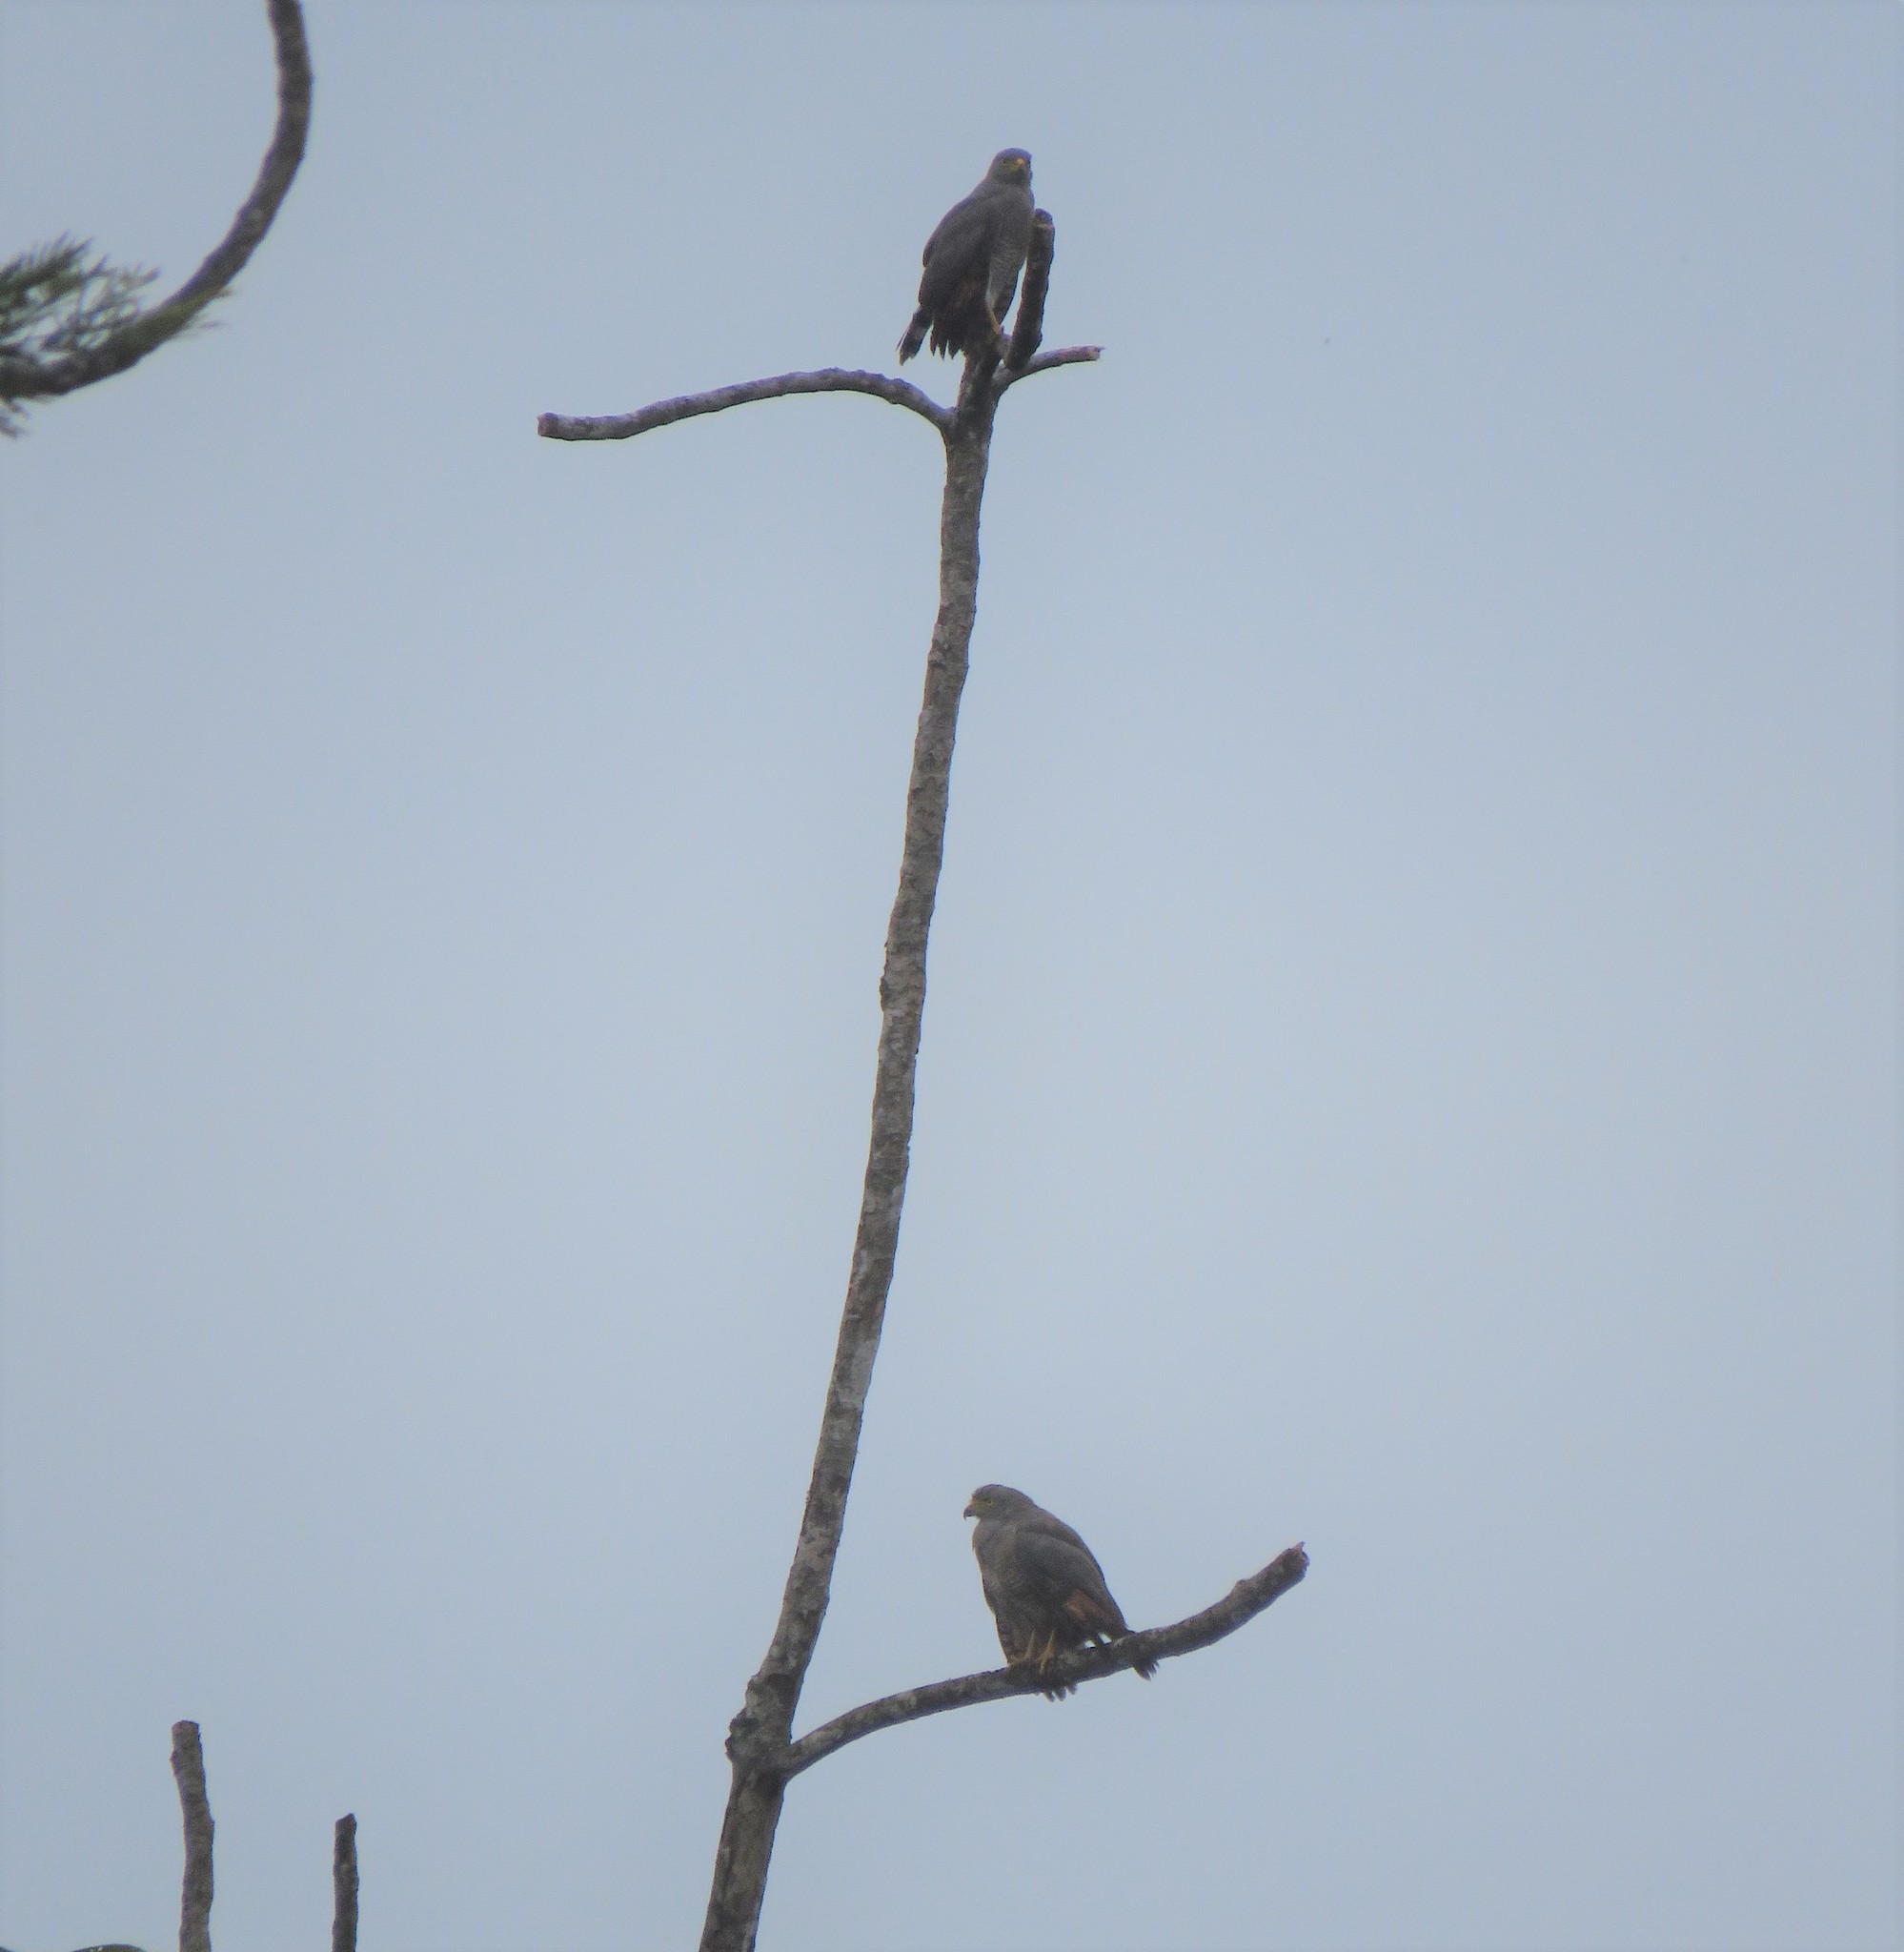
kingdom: Animalia
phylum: Chordata
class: Aves
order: Accipitriformes
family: Accipitridae
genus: Rupornis
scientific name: Rupornis magnirostris
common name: Roadside hawk
